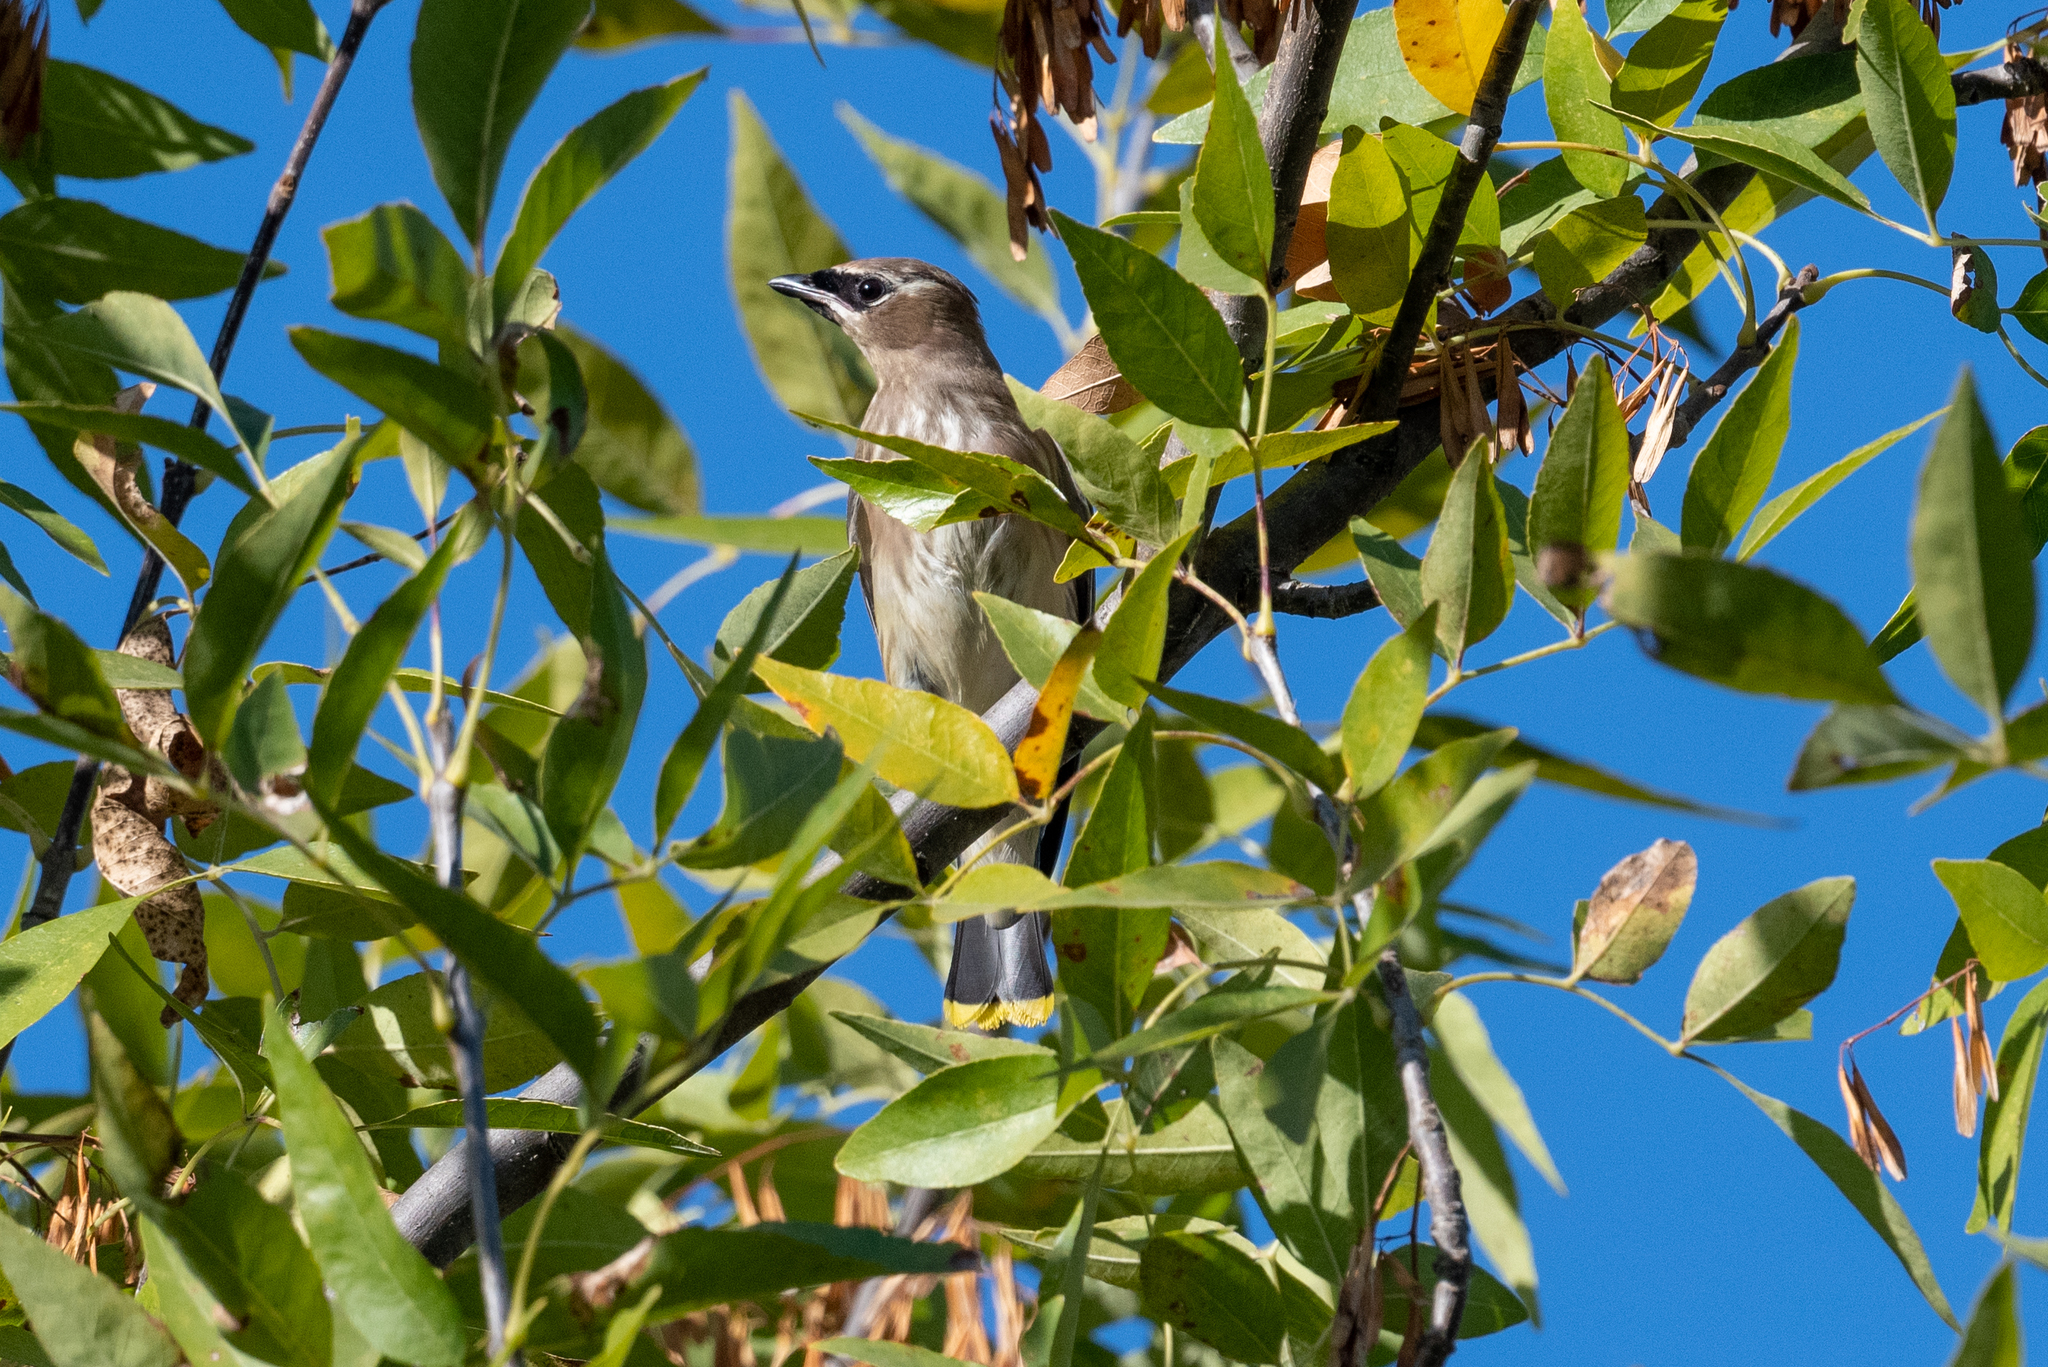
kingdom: Animalia
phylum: Chordata
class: Aves
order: Passeriformes
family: Bombycillidae
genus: Bombycilla
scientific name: Bombycilla cedrorum
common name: Cedar waxwing
